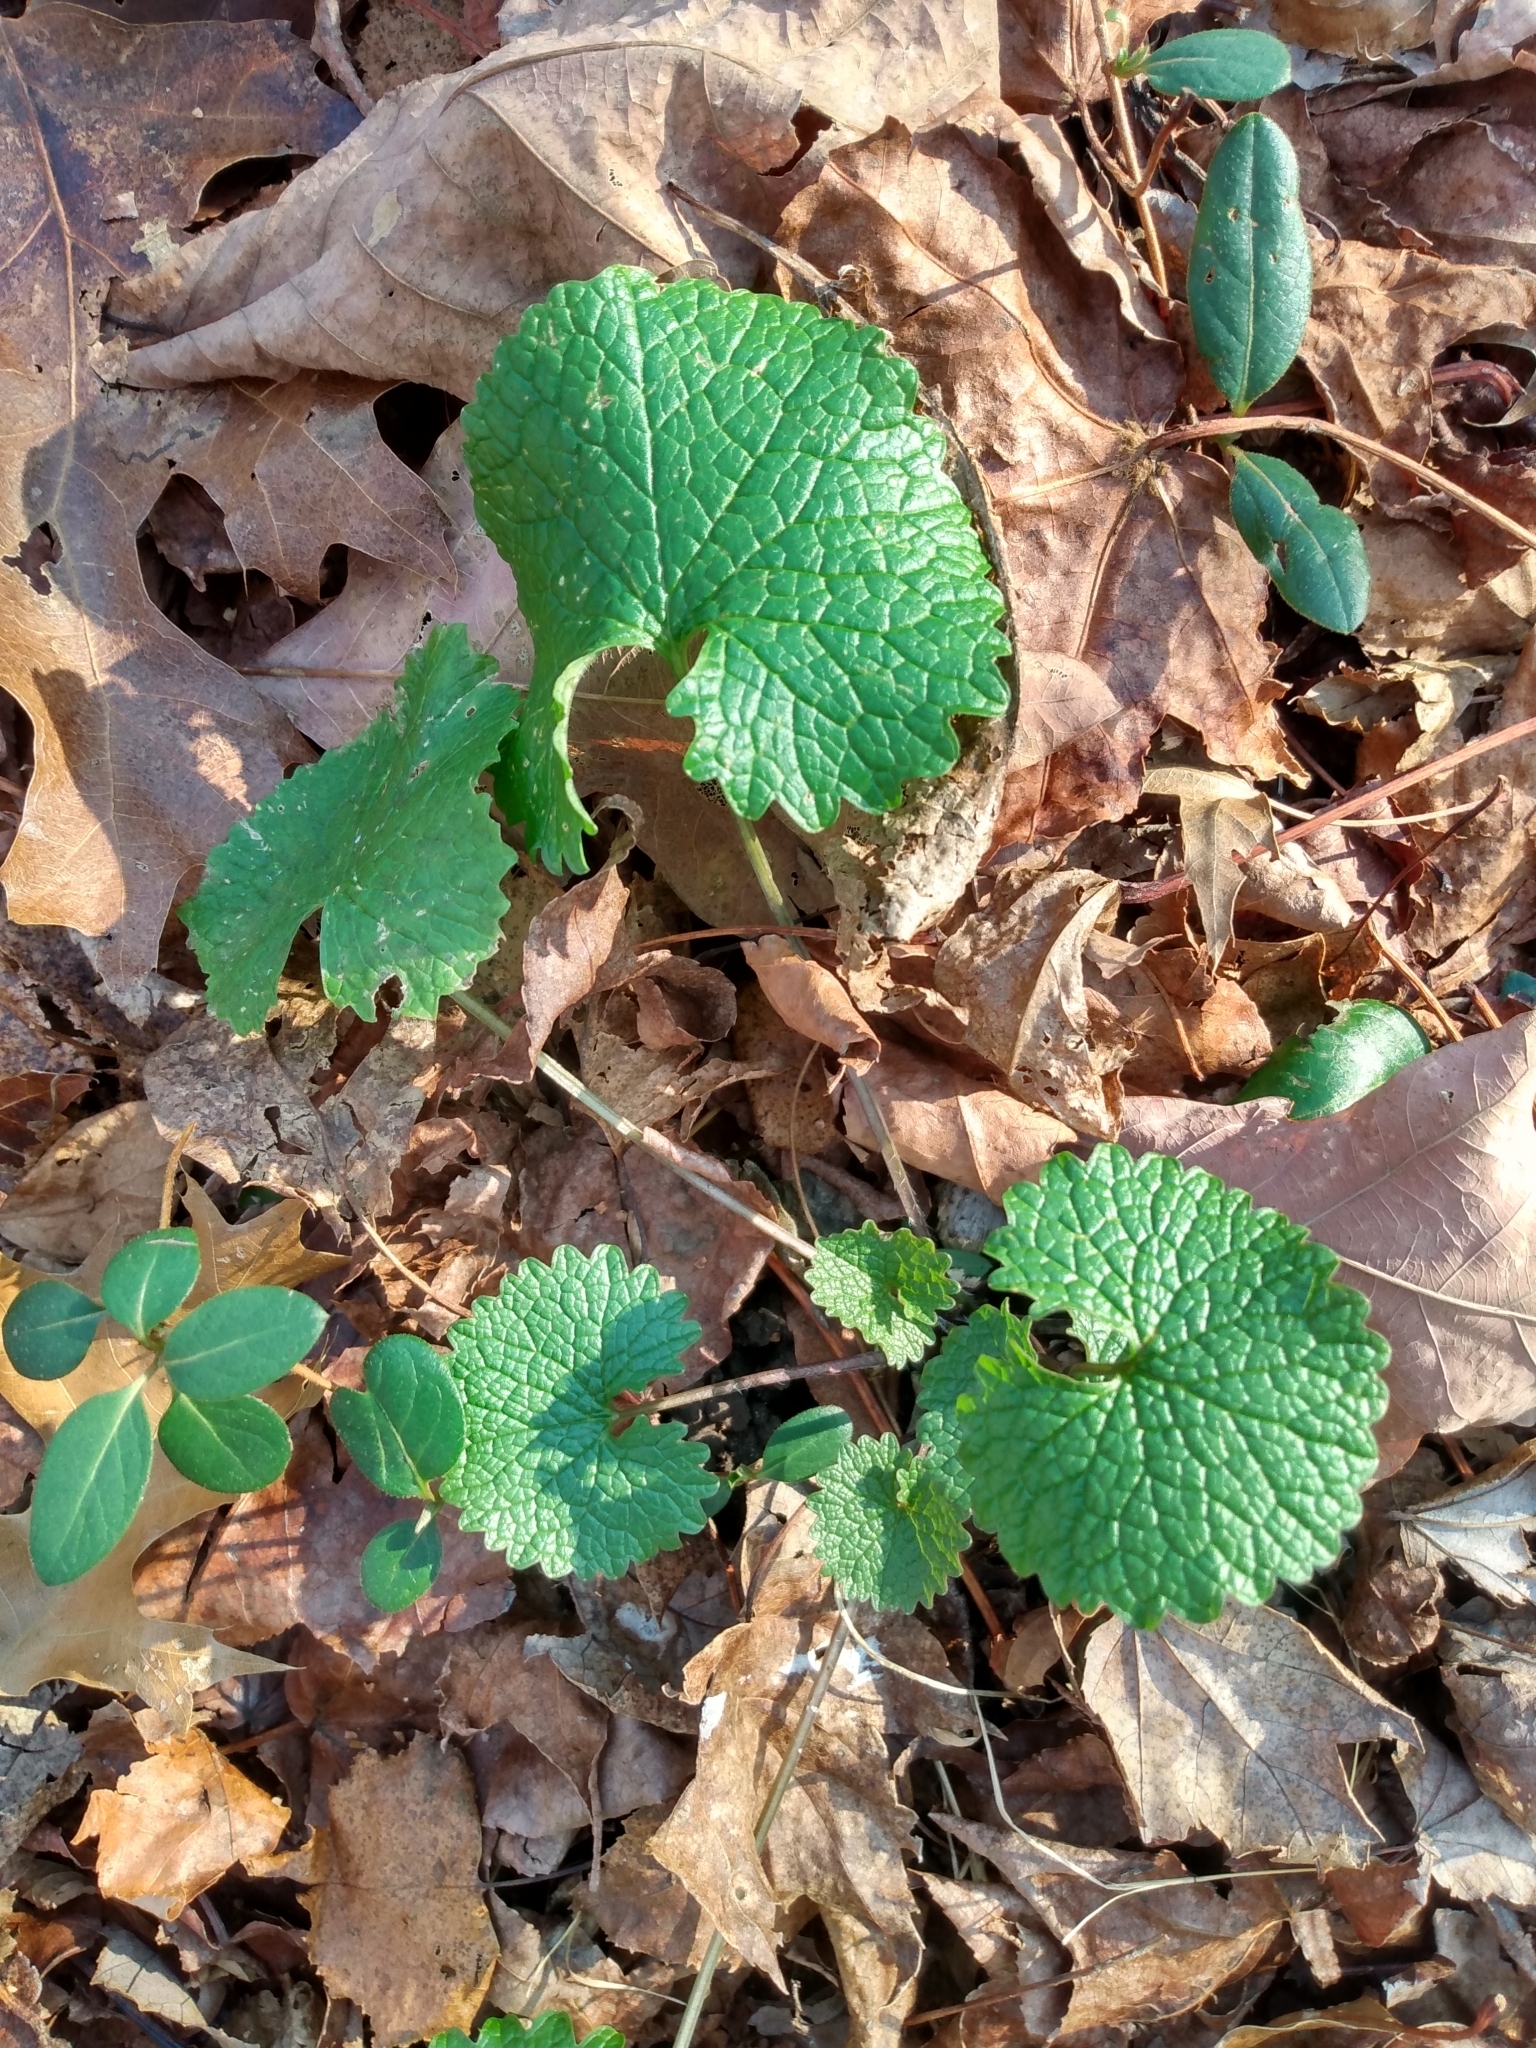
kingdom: Plantae
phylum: Tracheophyta
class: Magnoliopsida
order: Brassicales
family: Brassicaceae
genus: Alliaria
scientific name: Alliaria petiolata
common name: Garlic mustard
